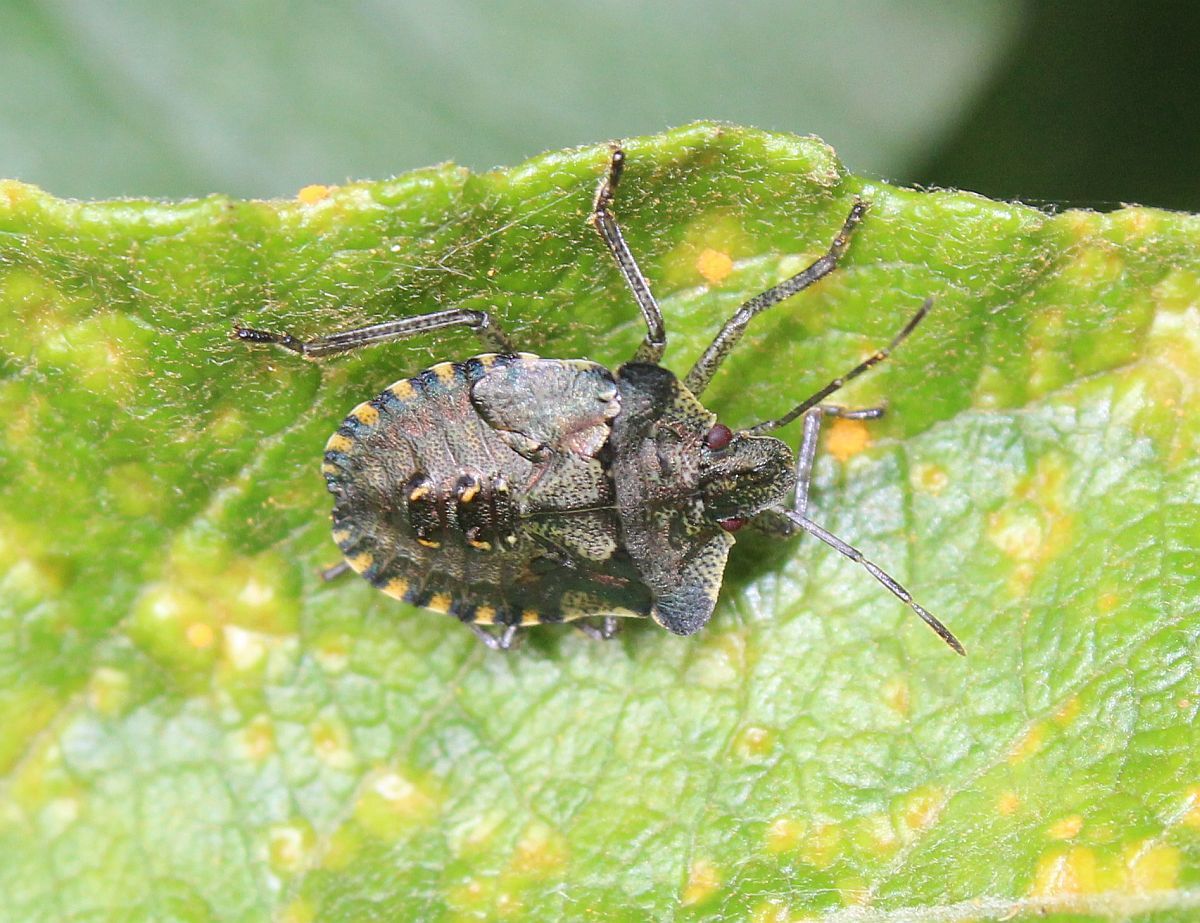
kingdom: Animalia
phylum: Arthropoda
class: Insecta
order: Hemiptera
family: Pentatomidae
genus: Pentatoma
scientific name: Pentatoma rufipes
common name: Forest bug
